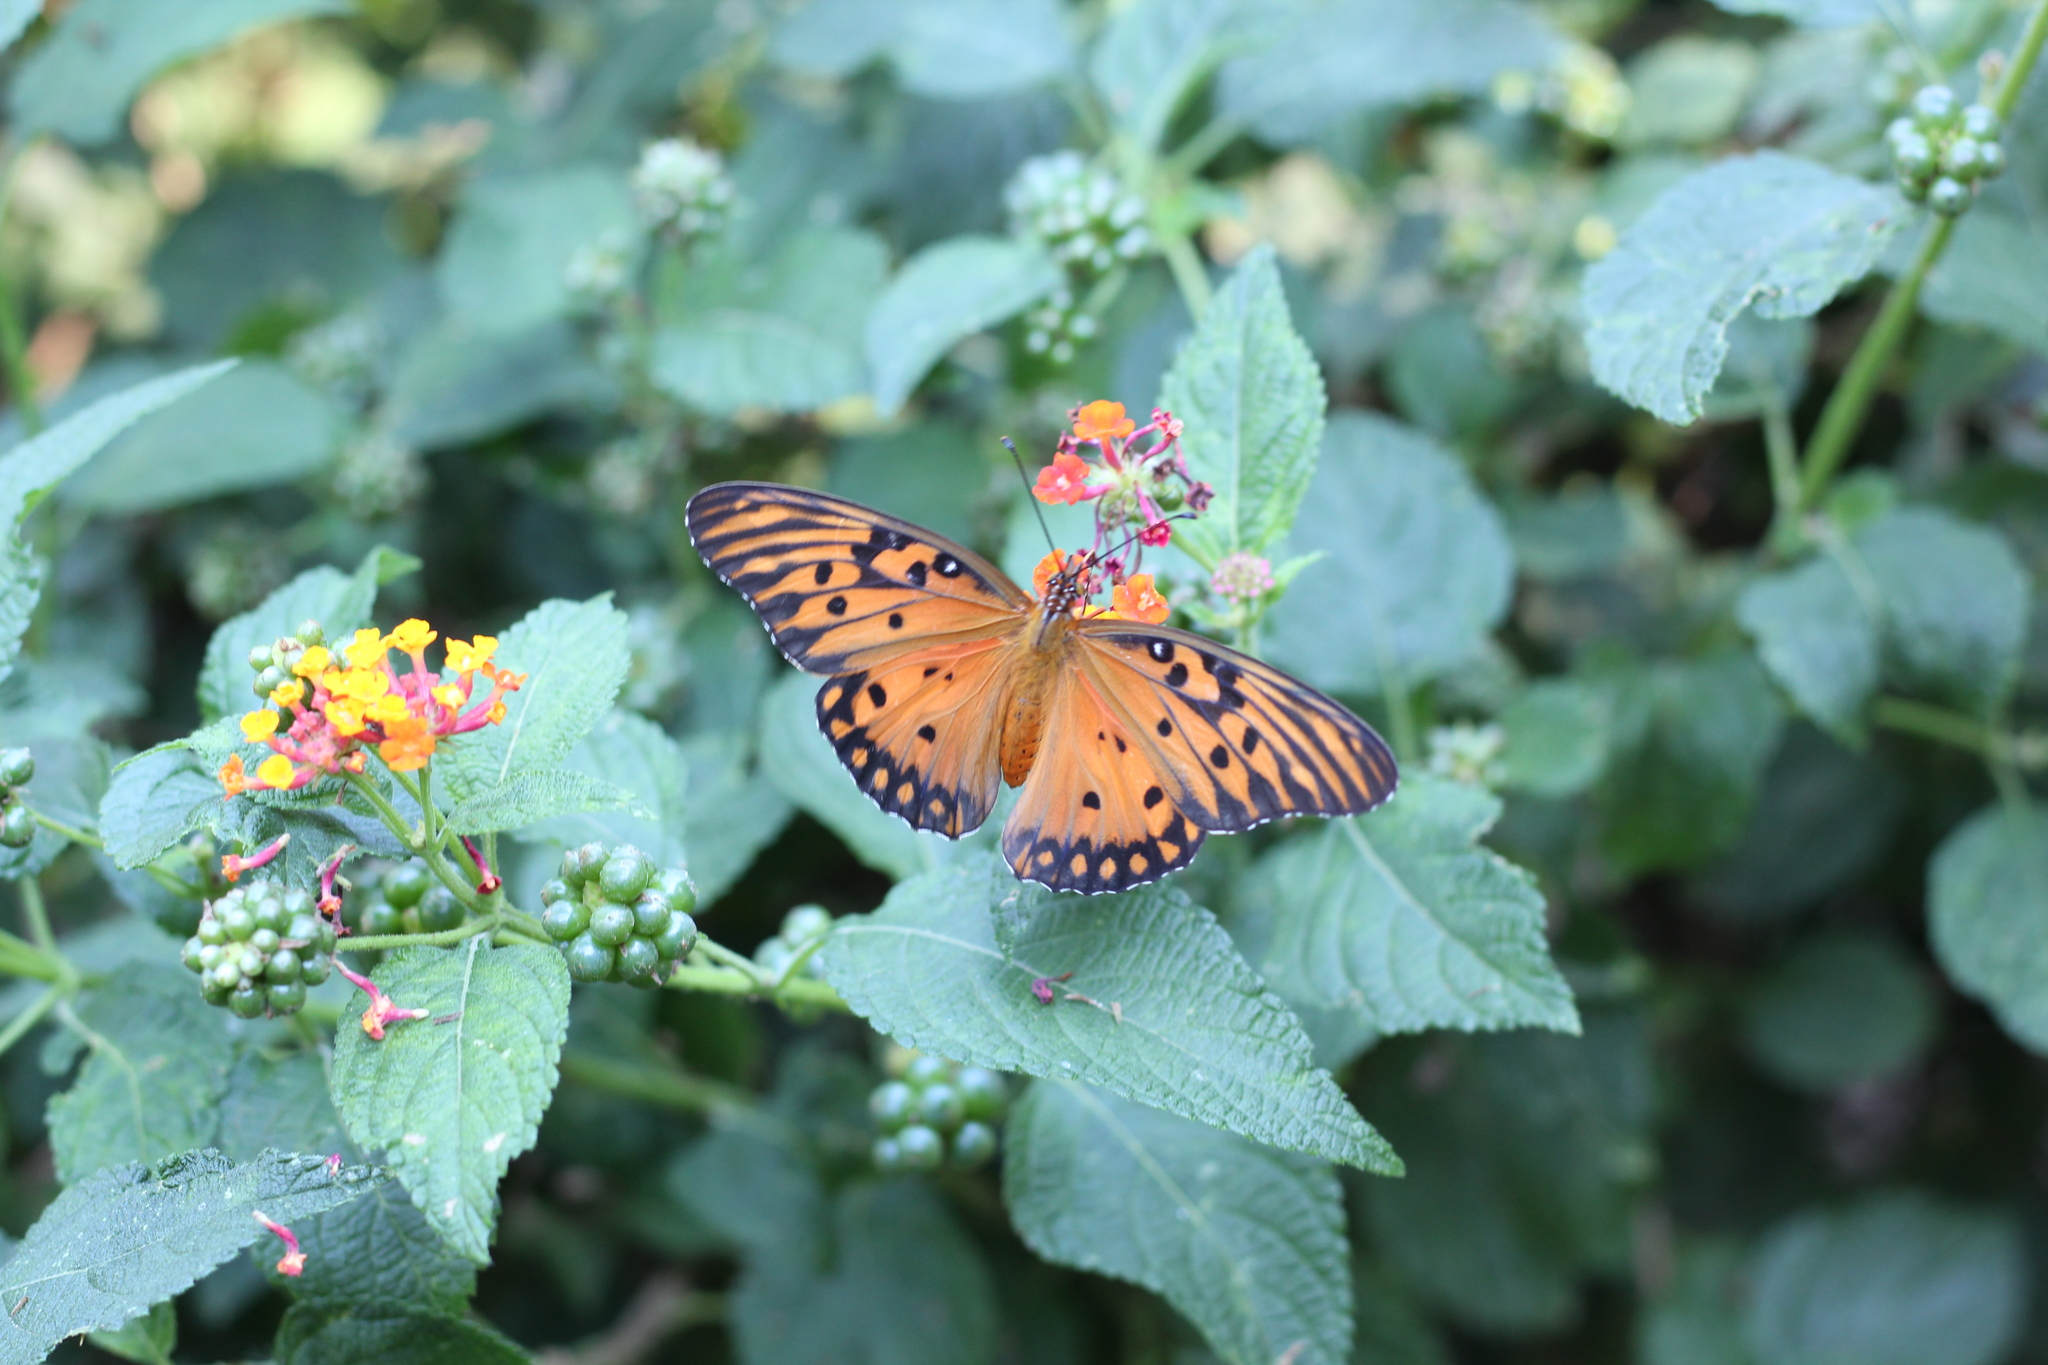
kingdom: Animalia
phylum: Arthropoda
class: Insecta
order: Lepidoptera
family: Nymphalidae
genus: Dione
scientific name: Dione vanillae
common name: Gulf fritillary
